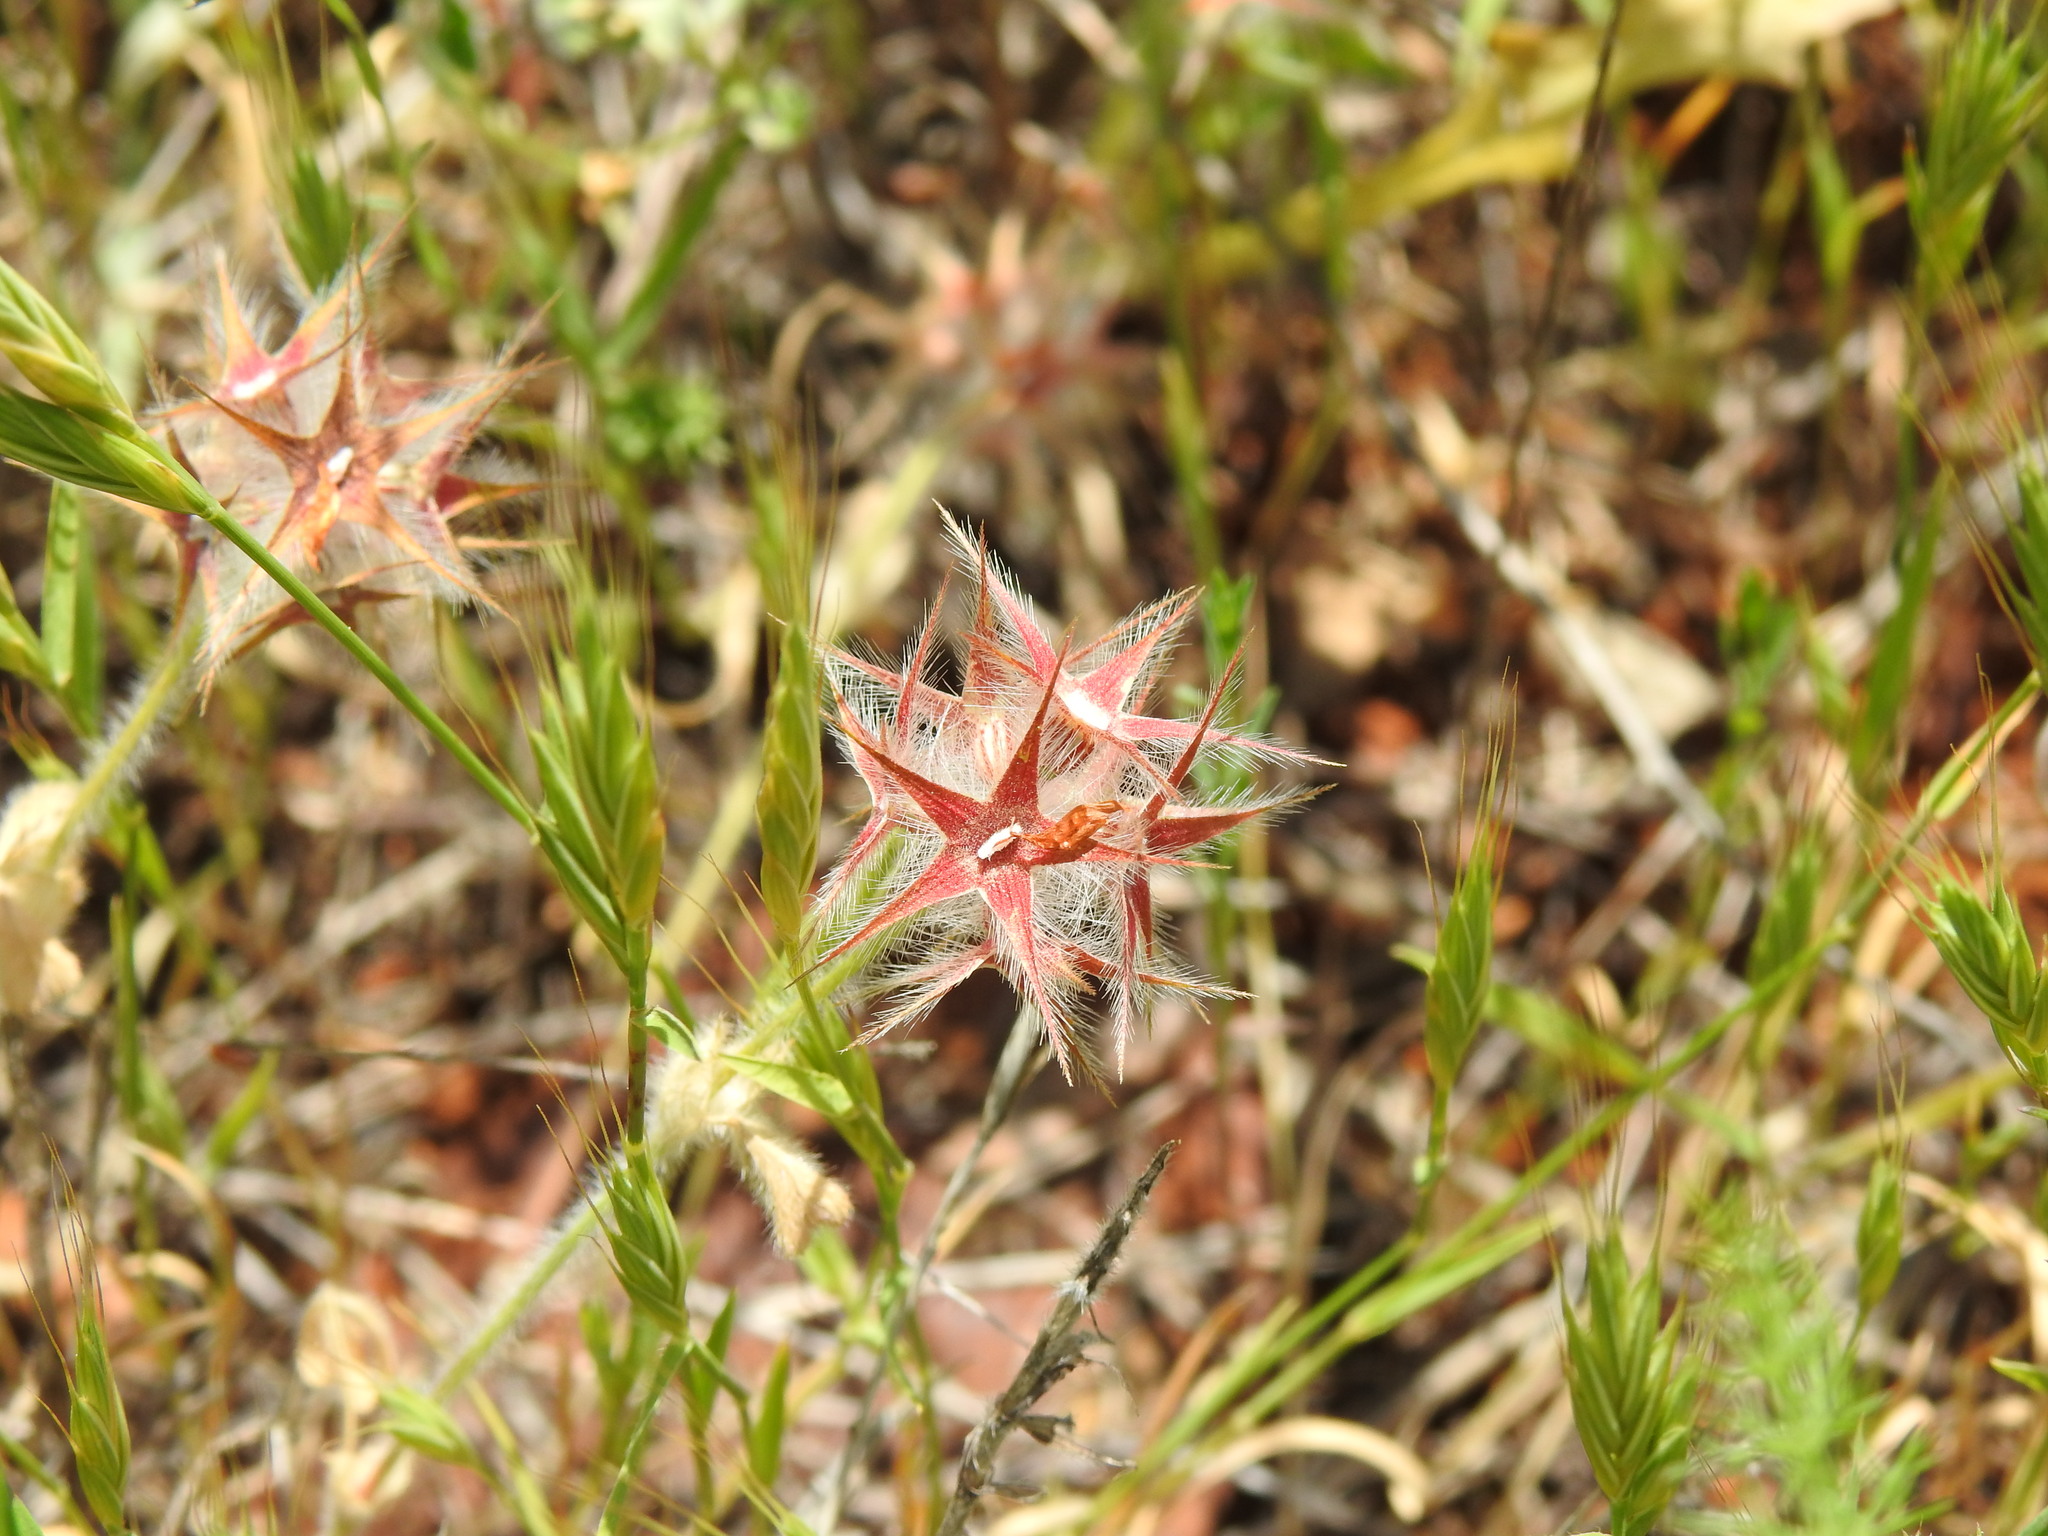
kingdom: Plantae
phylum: Tracheophyta
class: Magnoliopsida
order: Fabales
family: Fabaceae
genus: Trifolium
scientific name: Trifolium stellatum
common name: Starry clover
